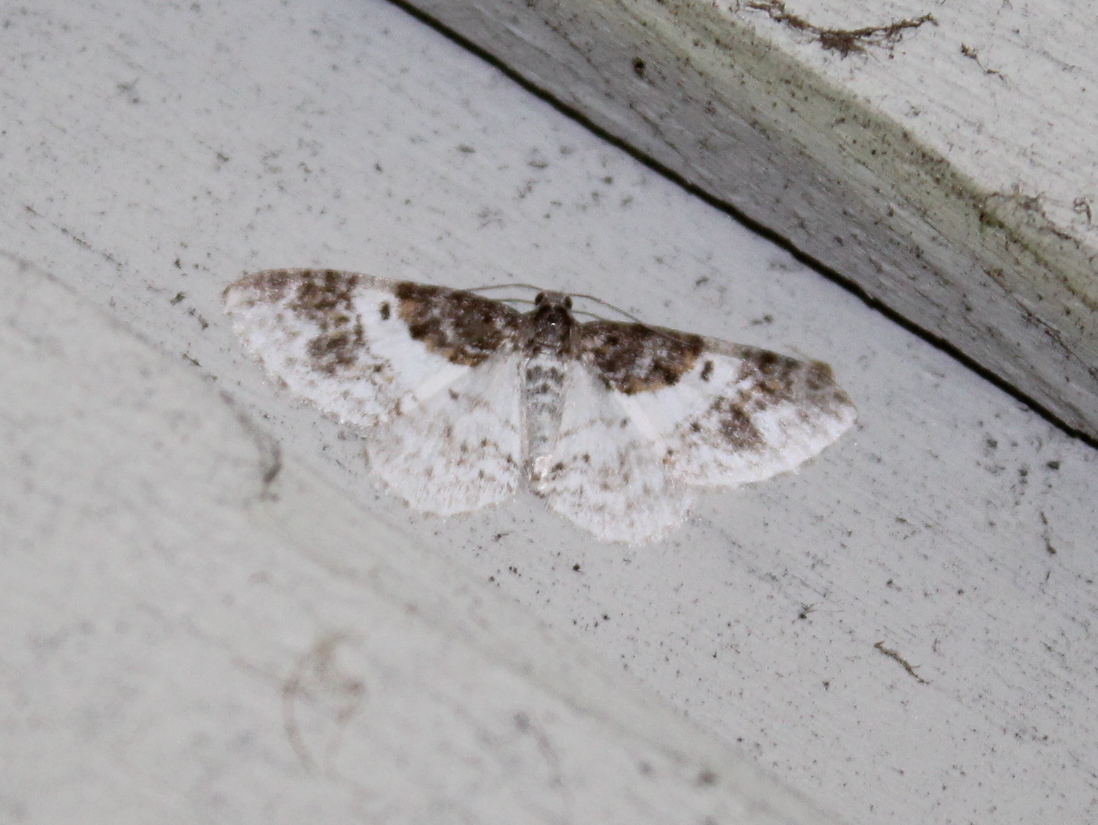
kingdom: Animalia
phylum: Arthropoda
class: Insecta
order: Lepidoptera
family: Geometridae
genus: Hydrelia
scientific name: Hydrelia condensata
